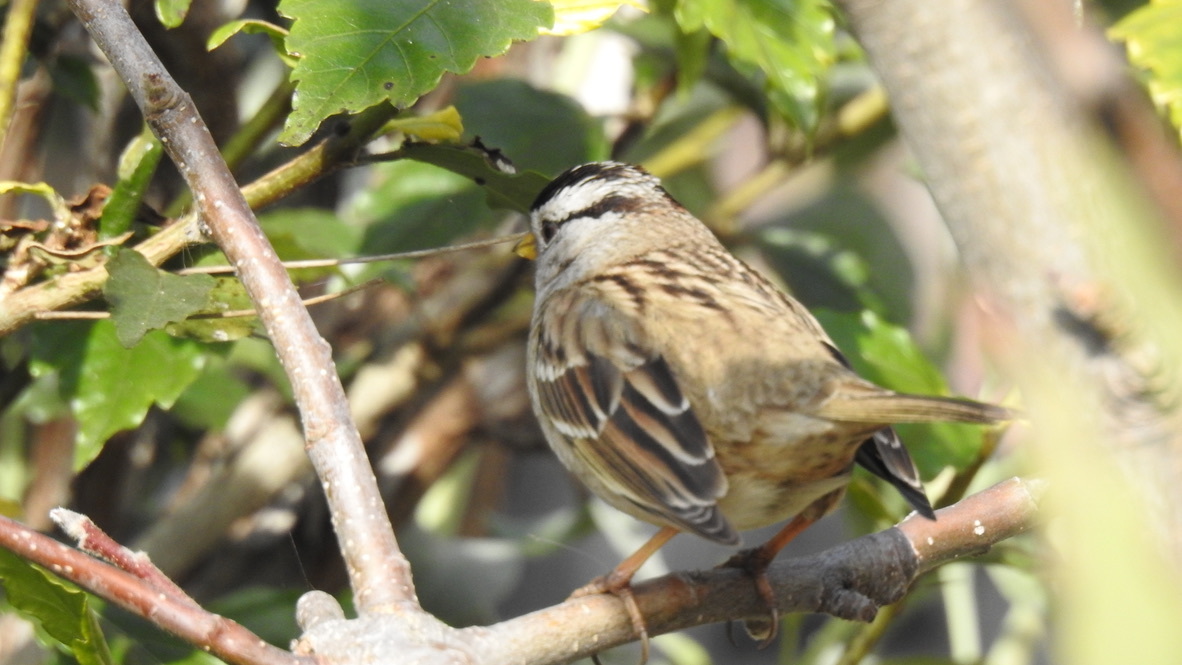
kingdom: Animalia
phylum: Chordata
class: Aves
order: Passeriformes
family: Passerellidae
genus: Zonotrichia
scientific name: Zonotrichia leucophrys
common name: White-crowned sparrow
